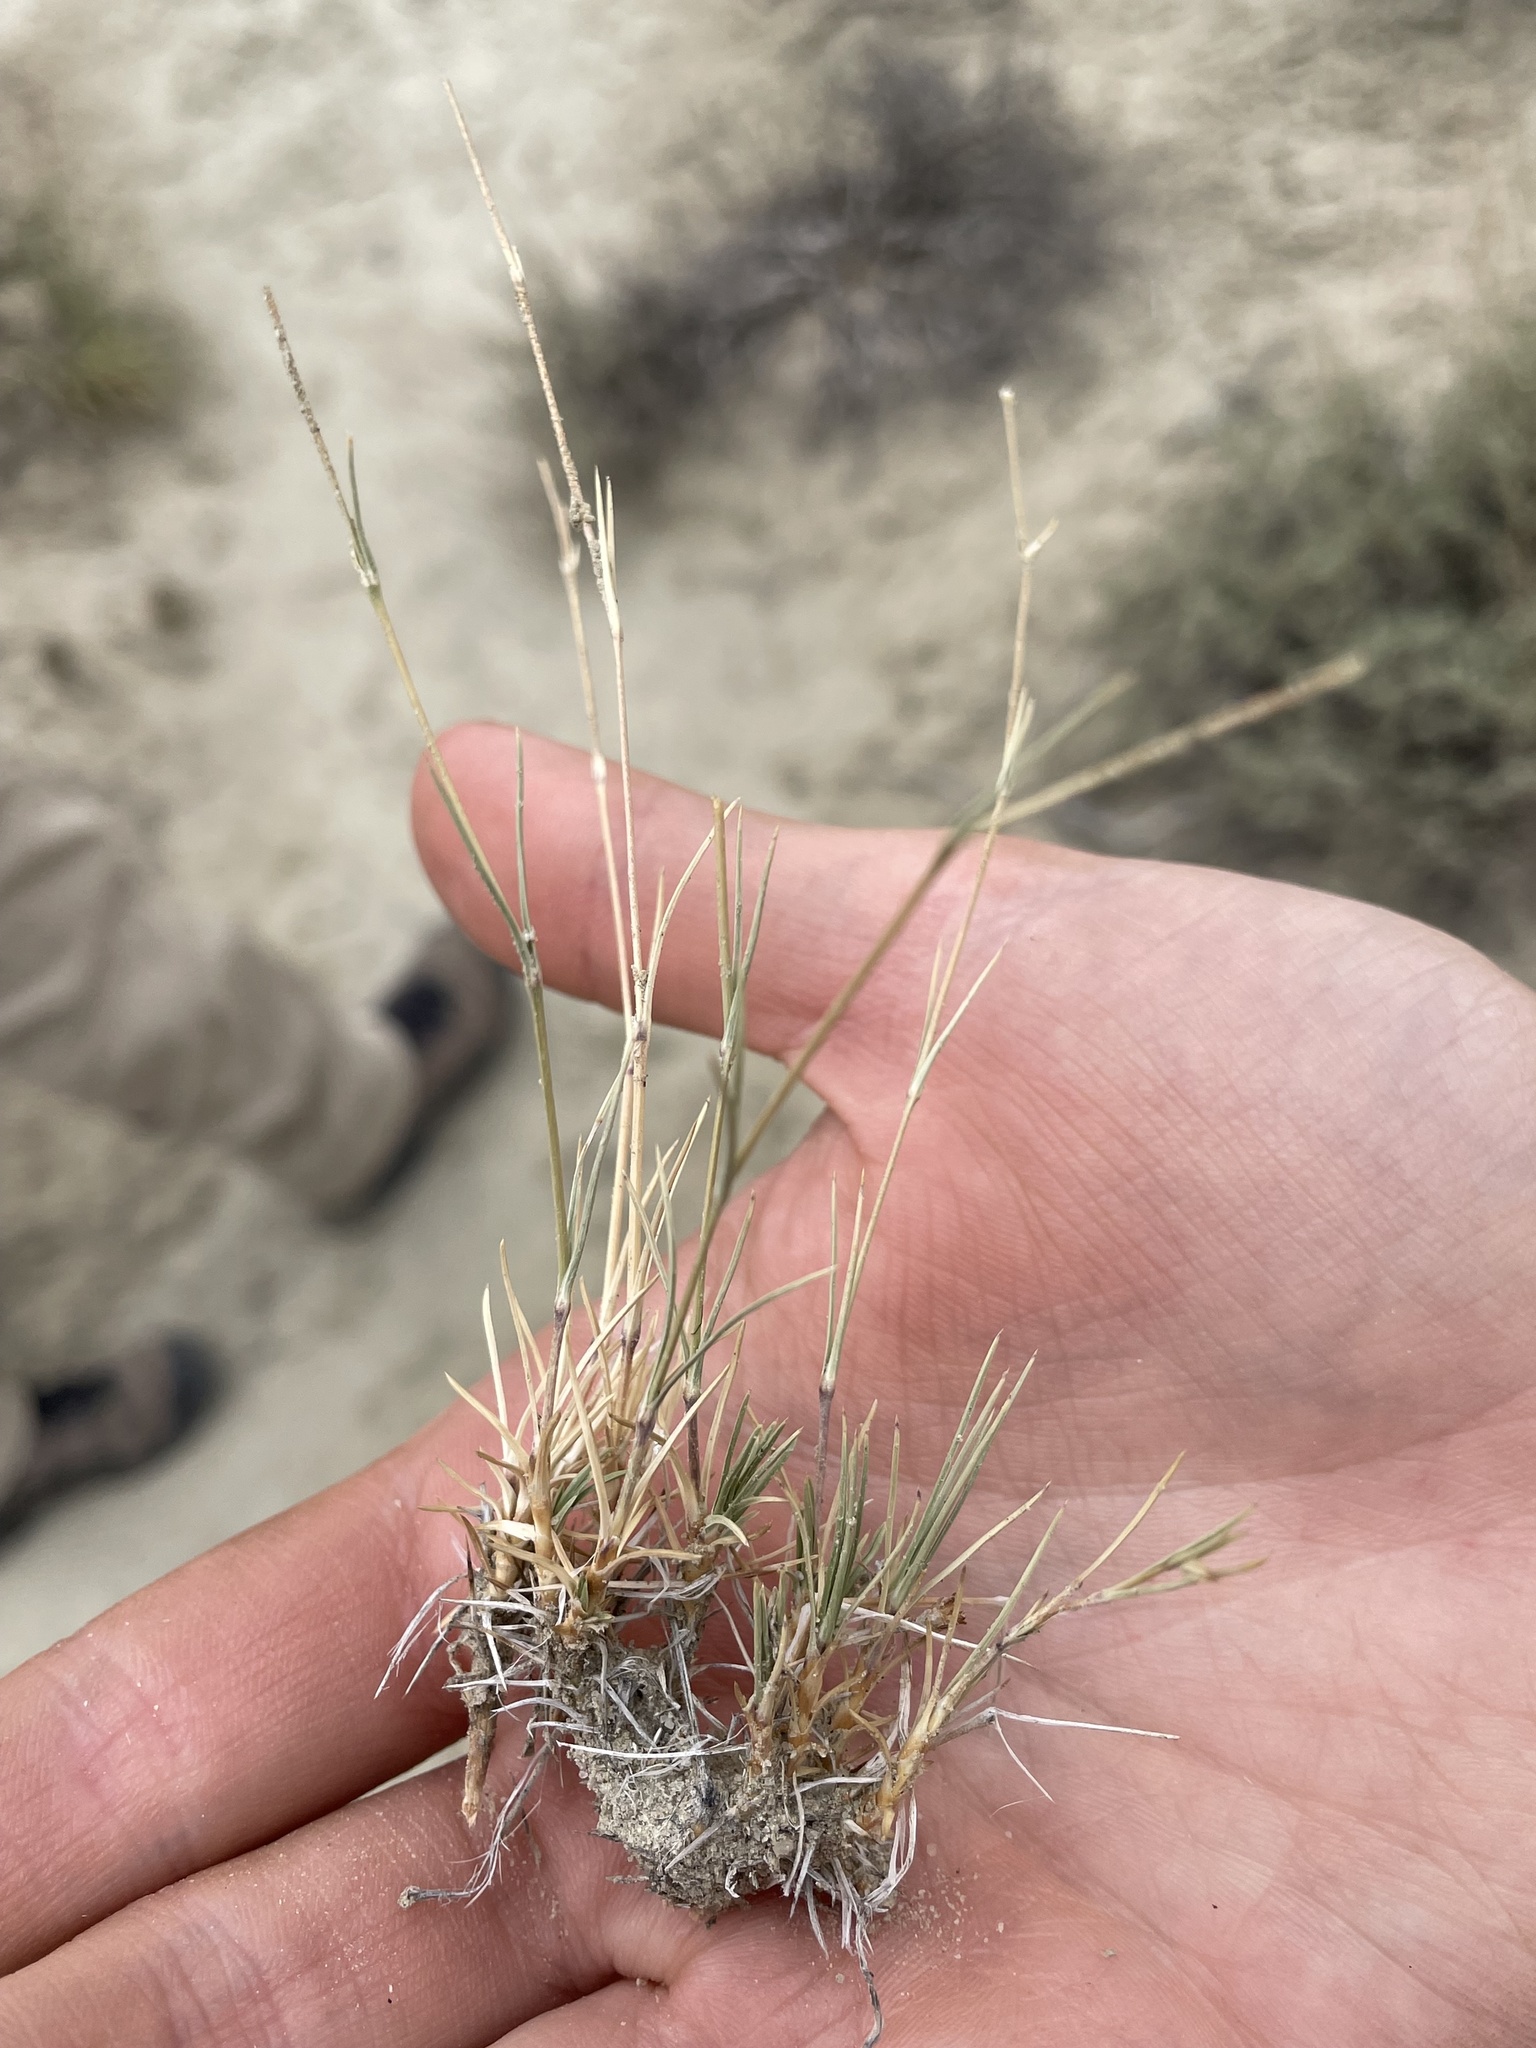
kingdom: Plantae
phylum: Tracheophyta
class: Liliopsida
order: Poales
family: Poaceae
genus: Muhlenbergia
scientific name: Muhlenbergia pungens
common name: Sandhill muhly
